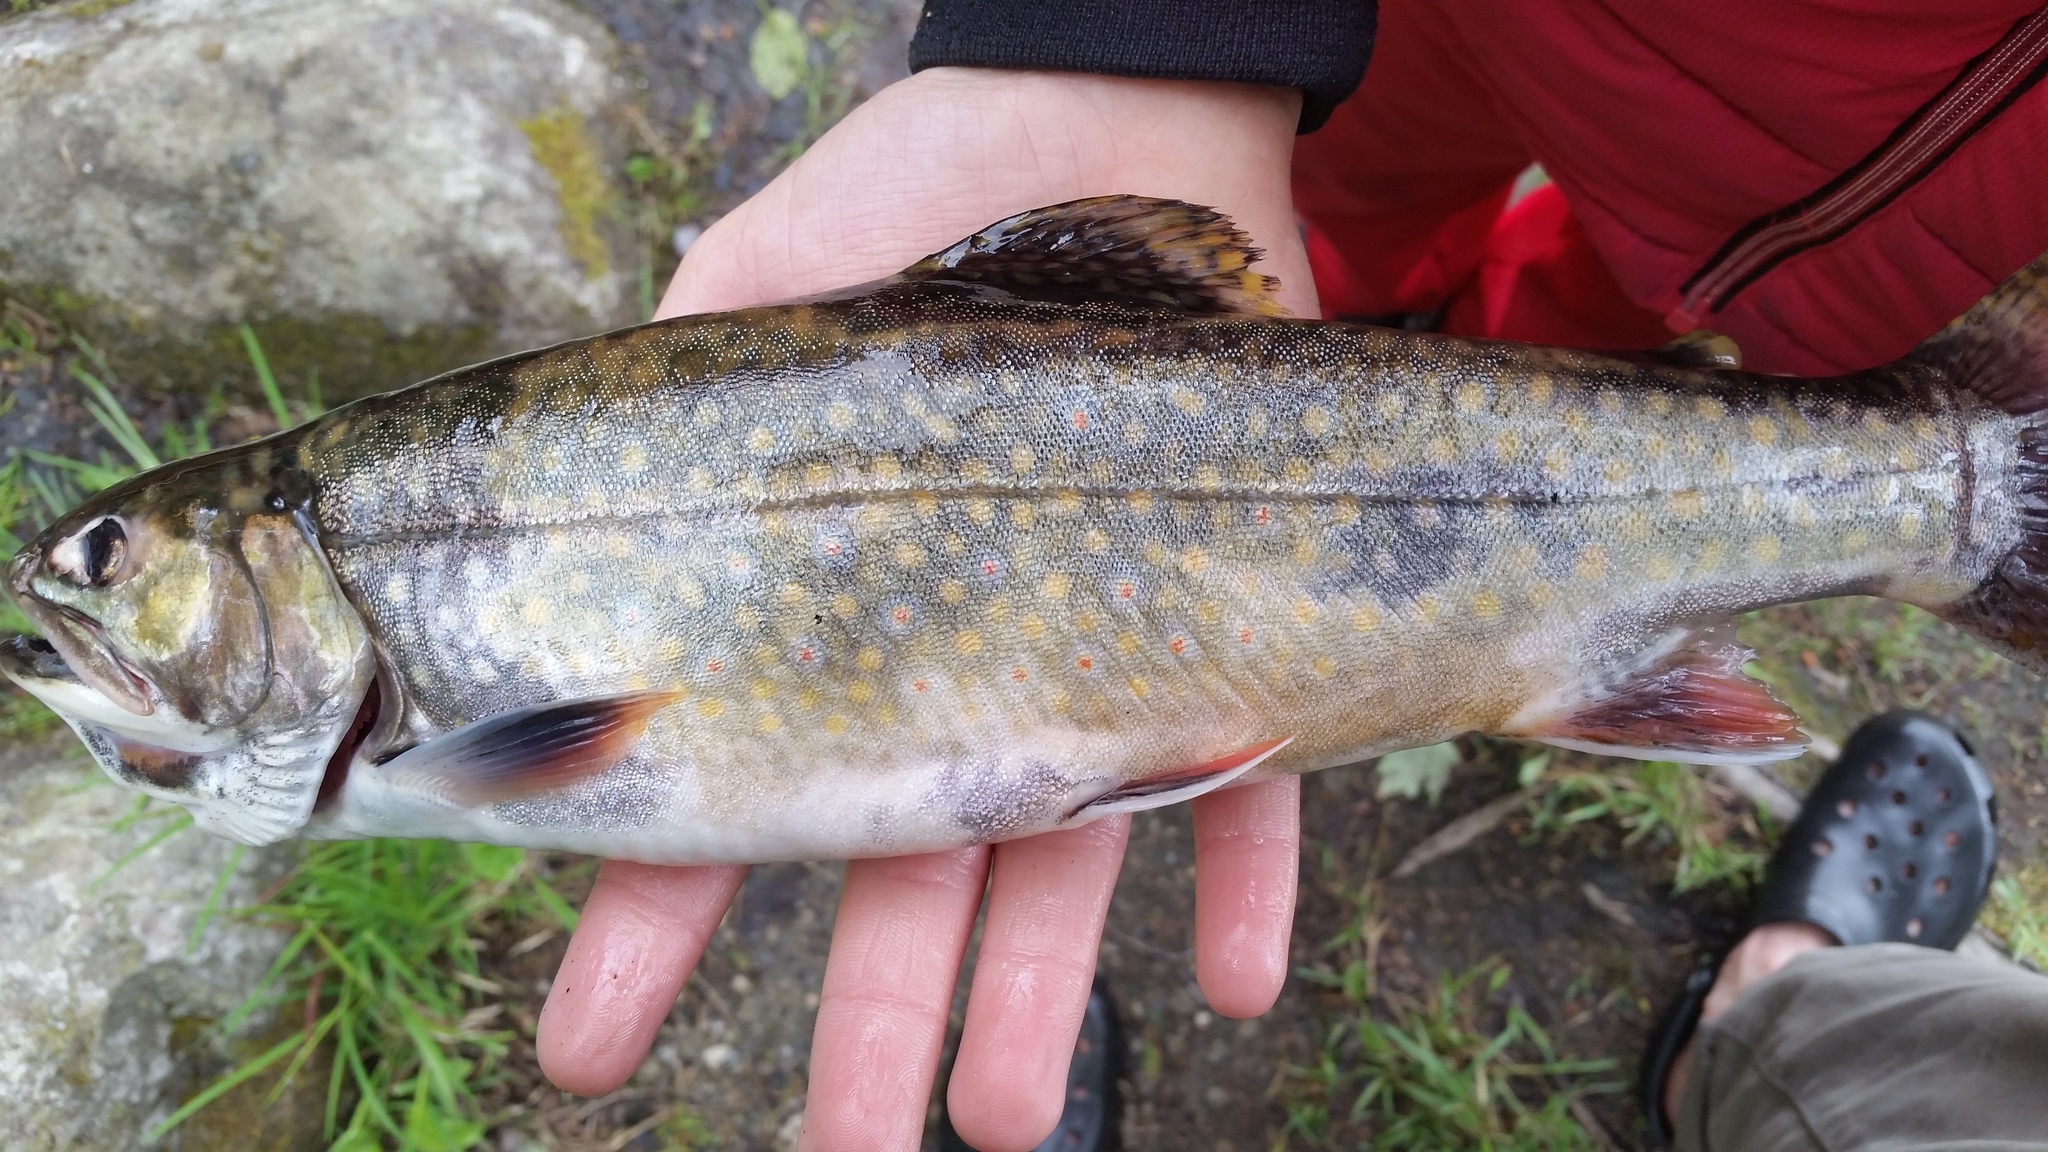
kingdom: Animalia
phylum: Chordata
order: Salmoniformes
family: Salmonidae
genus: Salvelinus
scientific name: Salvelinus fontinalis
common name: Brook trout
